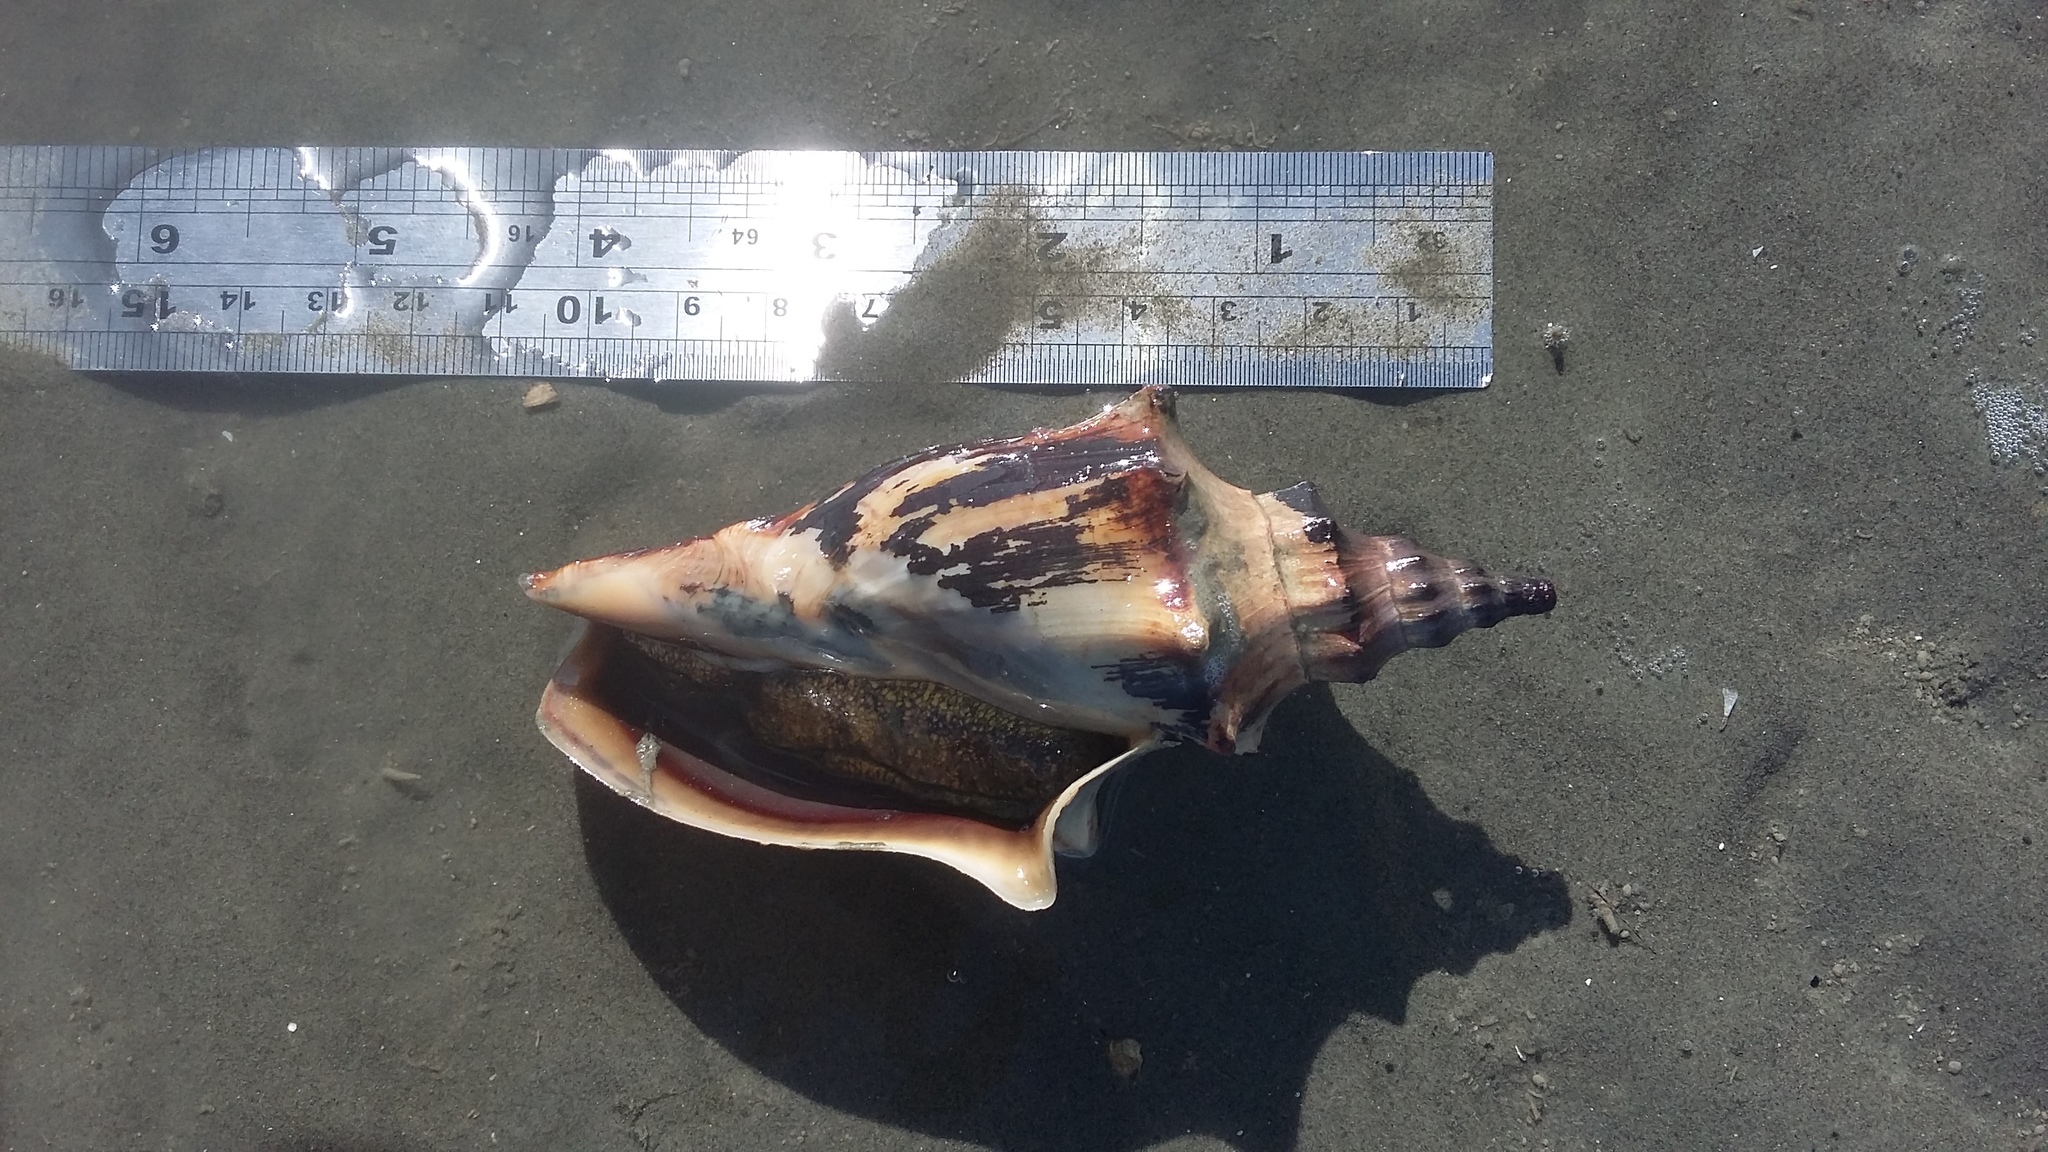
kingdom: Animalia
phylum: Mollusca
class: Gastropoda
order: Neogastropoda
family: Volutidae
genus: Alcithoe
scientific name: Alcithoe arabica
